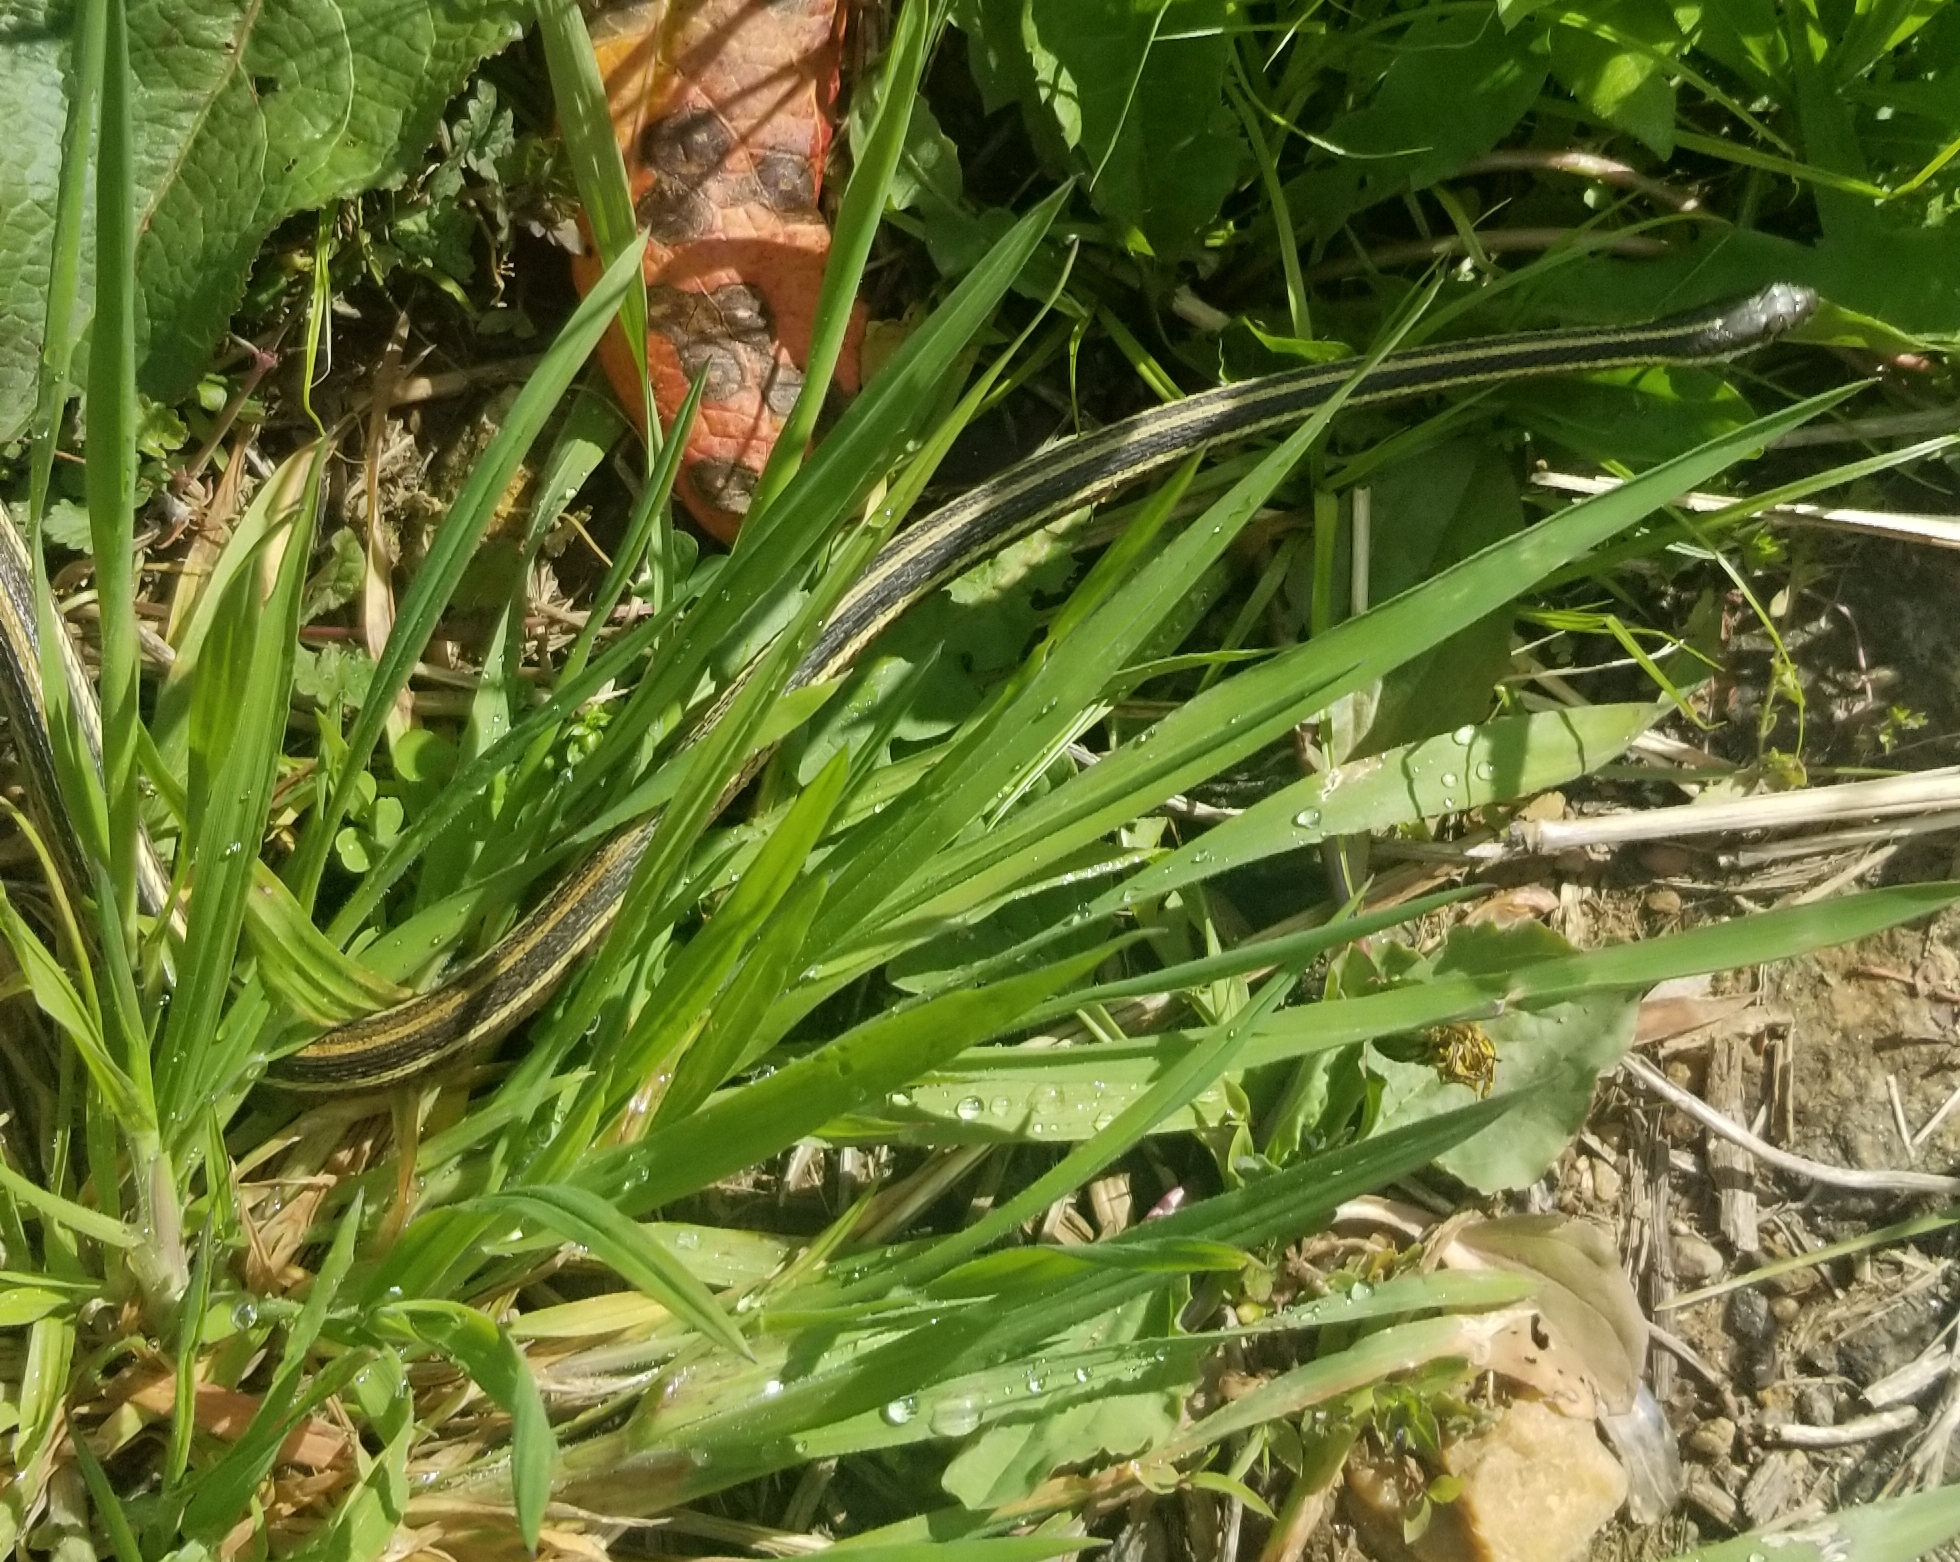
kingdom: Animalia
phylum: Chordata
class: Squamata
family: Colubridae
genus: Thamnophis
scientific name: Thamnophis saurita
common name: Eastern ribbonsnake
